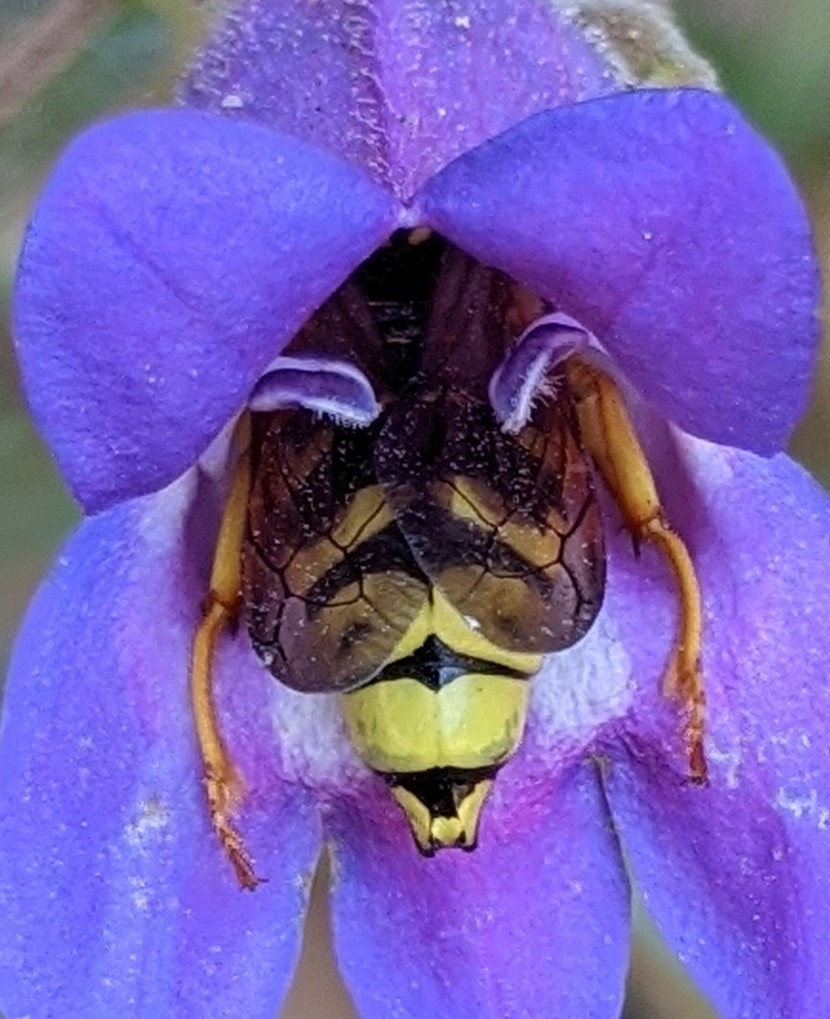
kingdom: Animalia
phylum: Arthropoda
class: Insecta
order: Hymenoptera
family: Masaridae
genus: Pseudomasaris
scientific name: Pseudomasaris vespoides
